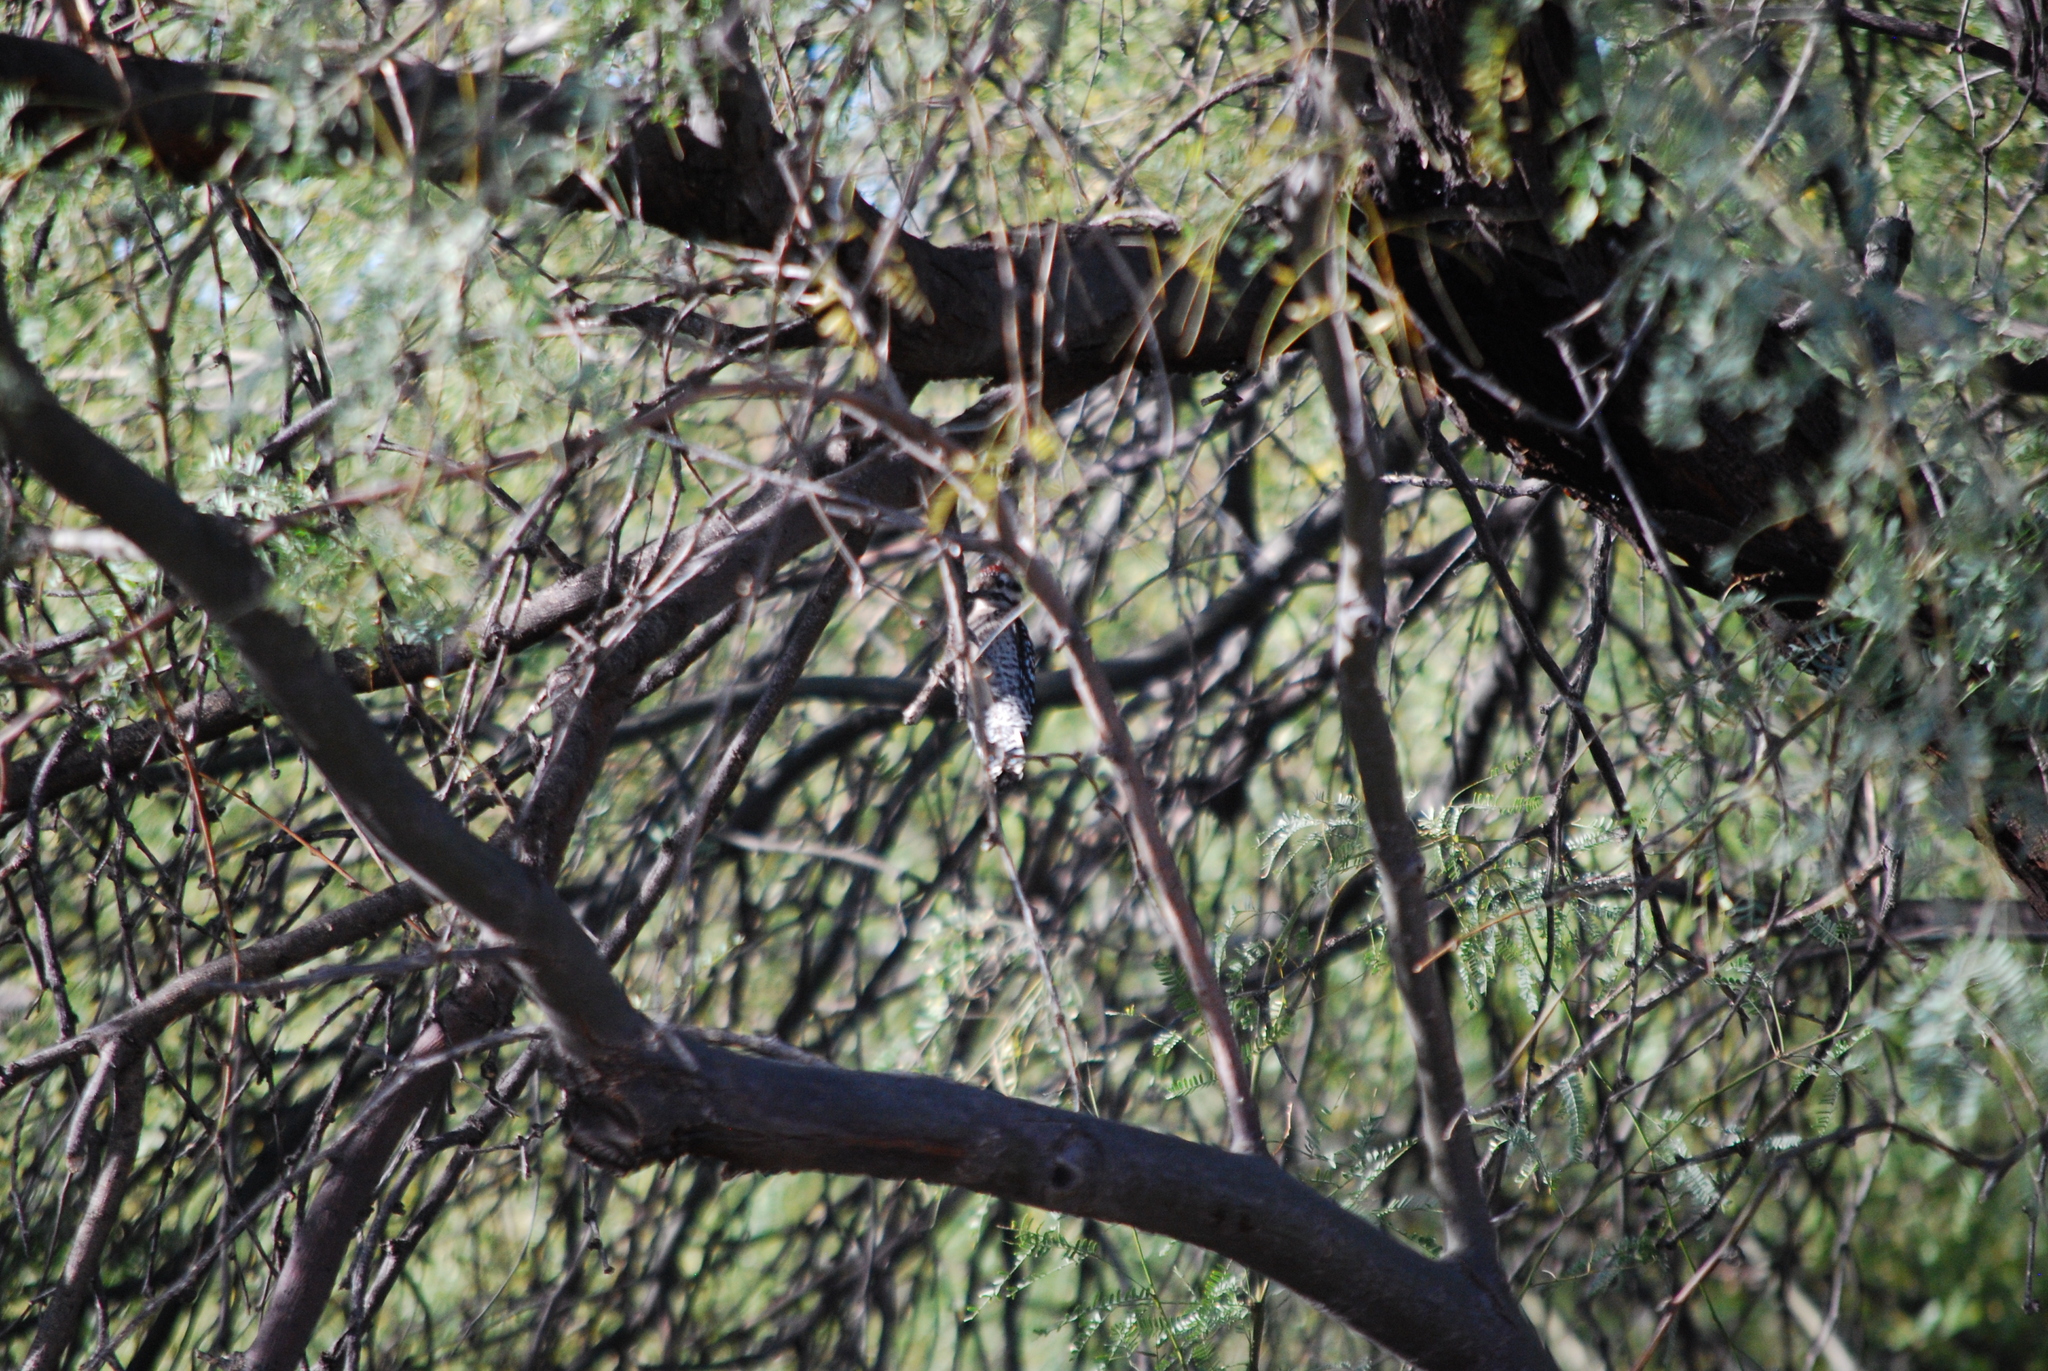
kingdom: Animalia
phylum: Chordata
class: Aves
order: Piciformes
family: Picidae
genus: Dryobates
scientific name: Dryobates scalaris
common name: Ladder-backed woodpecker
